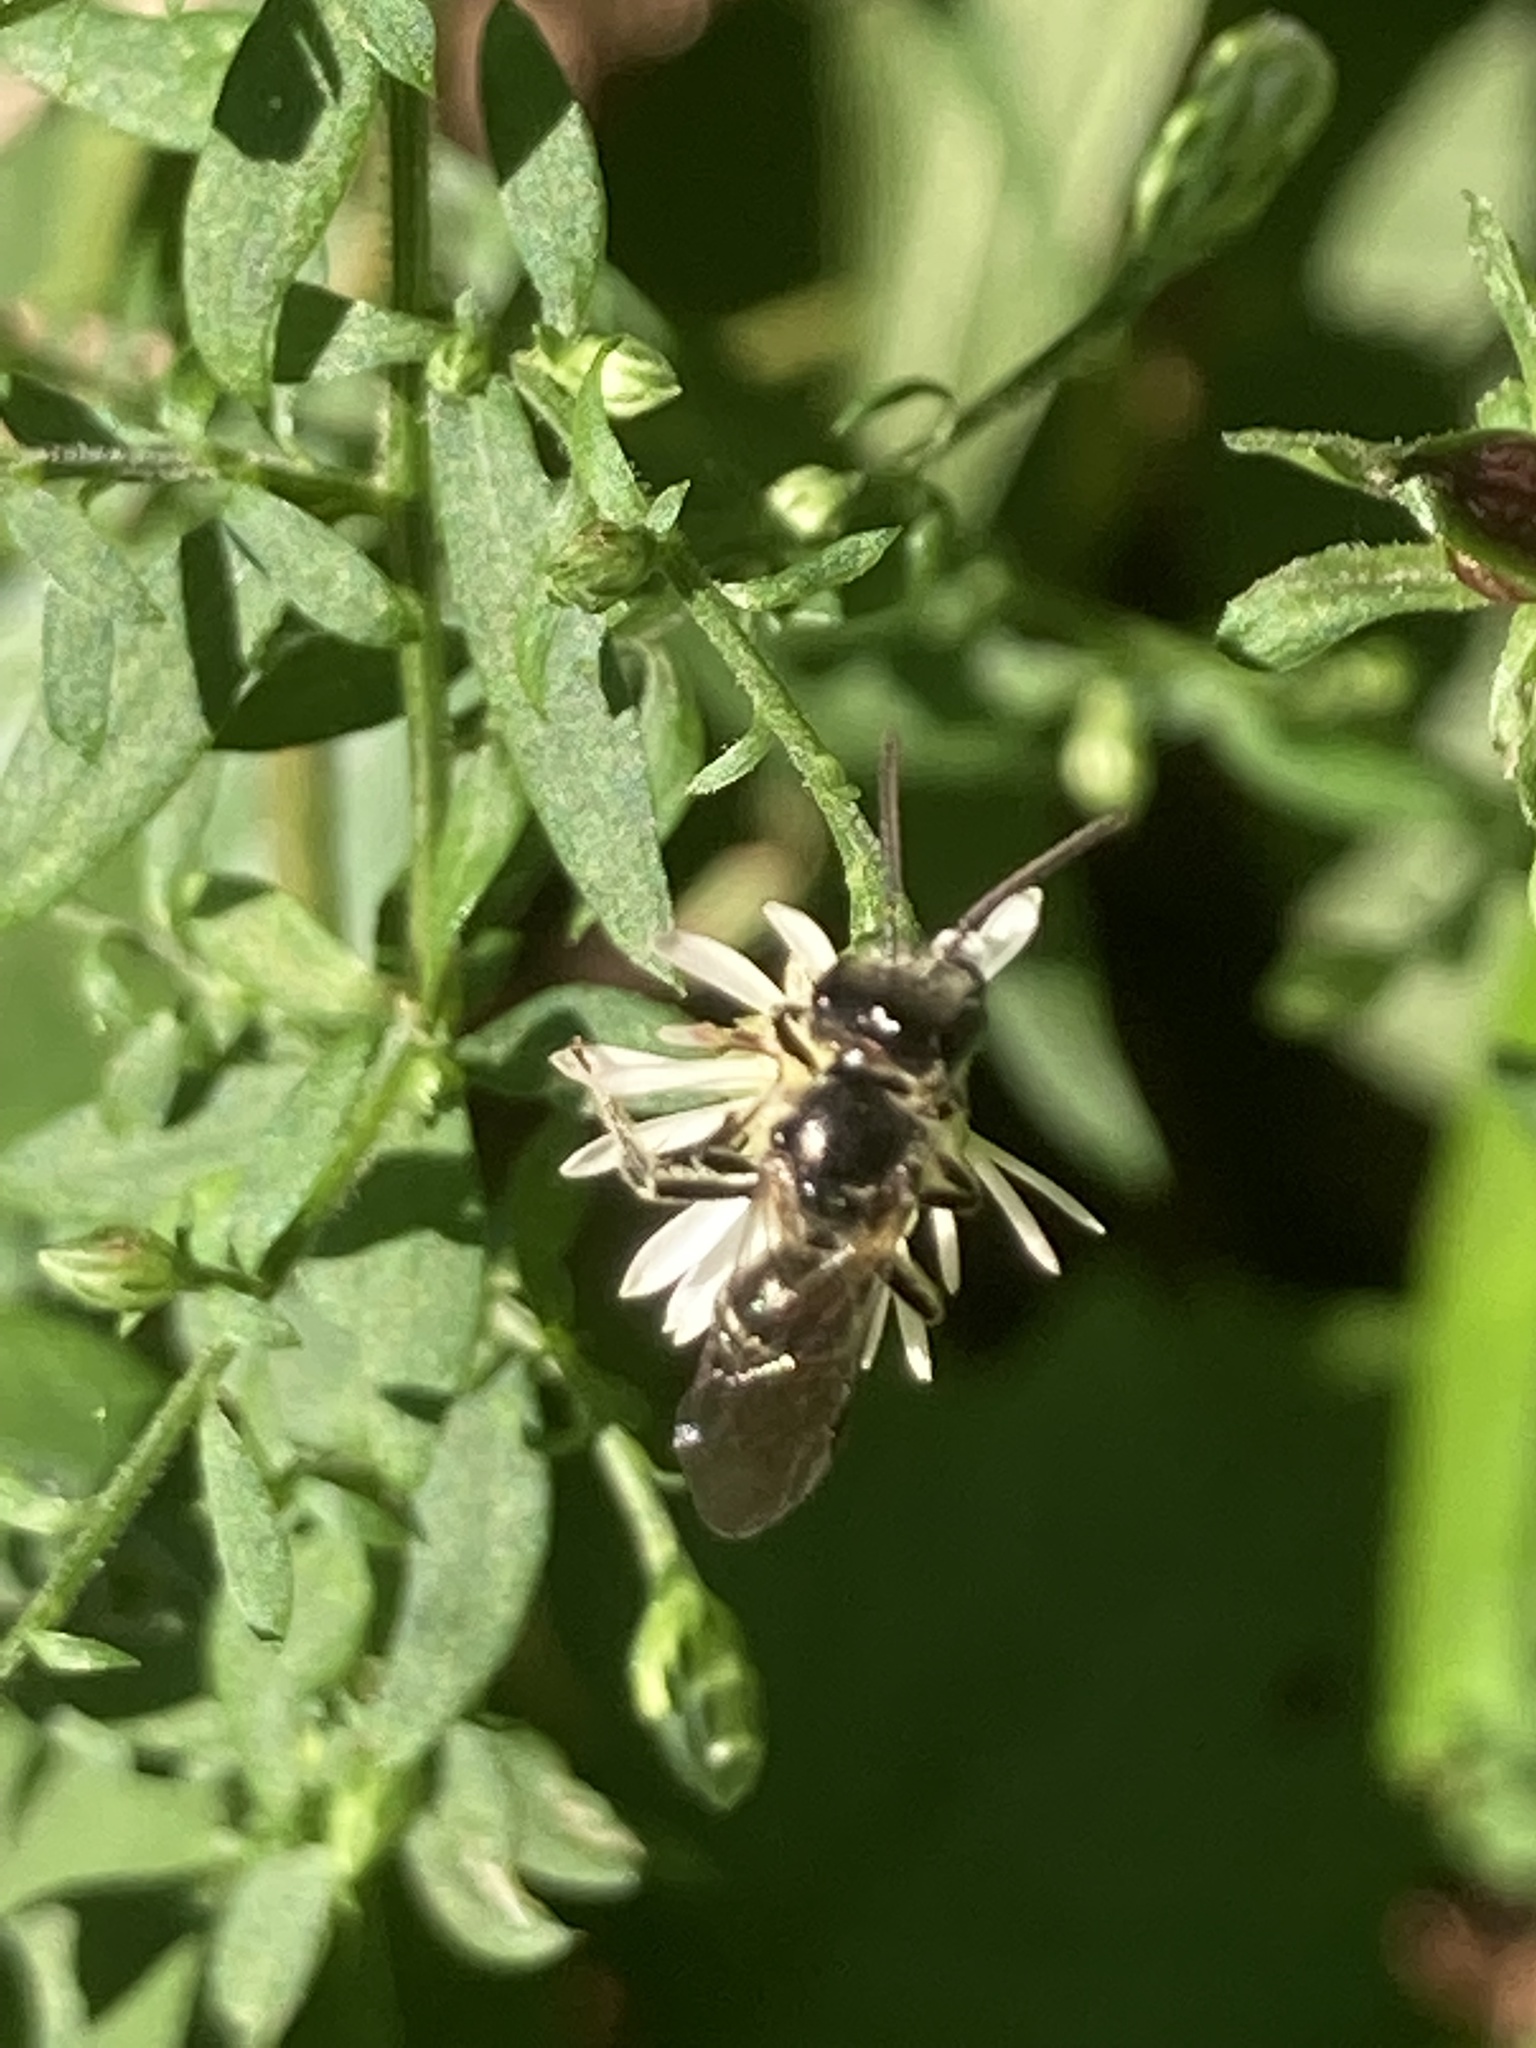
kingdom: Animalia
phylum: Arthropoda
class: Insecta
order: Hymenoptera
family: Halictidae
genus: Lasioglossum
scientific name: Lasioglossum coriaceum
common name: Leathery sweat bee
